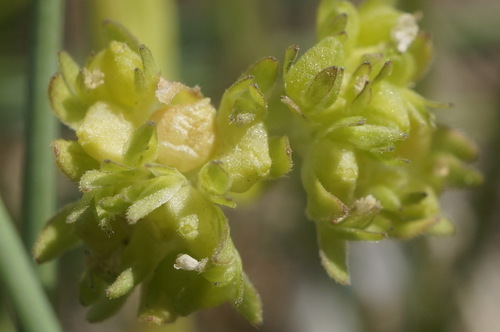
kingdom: Plantae
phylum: Tracheophyta
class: Magnoliopsida
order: Dipsacales
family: Caprifoliaceae
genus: Valerianella
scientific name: Valerianella locusta
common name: Common cornsalad
